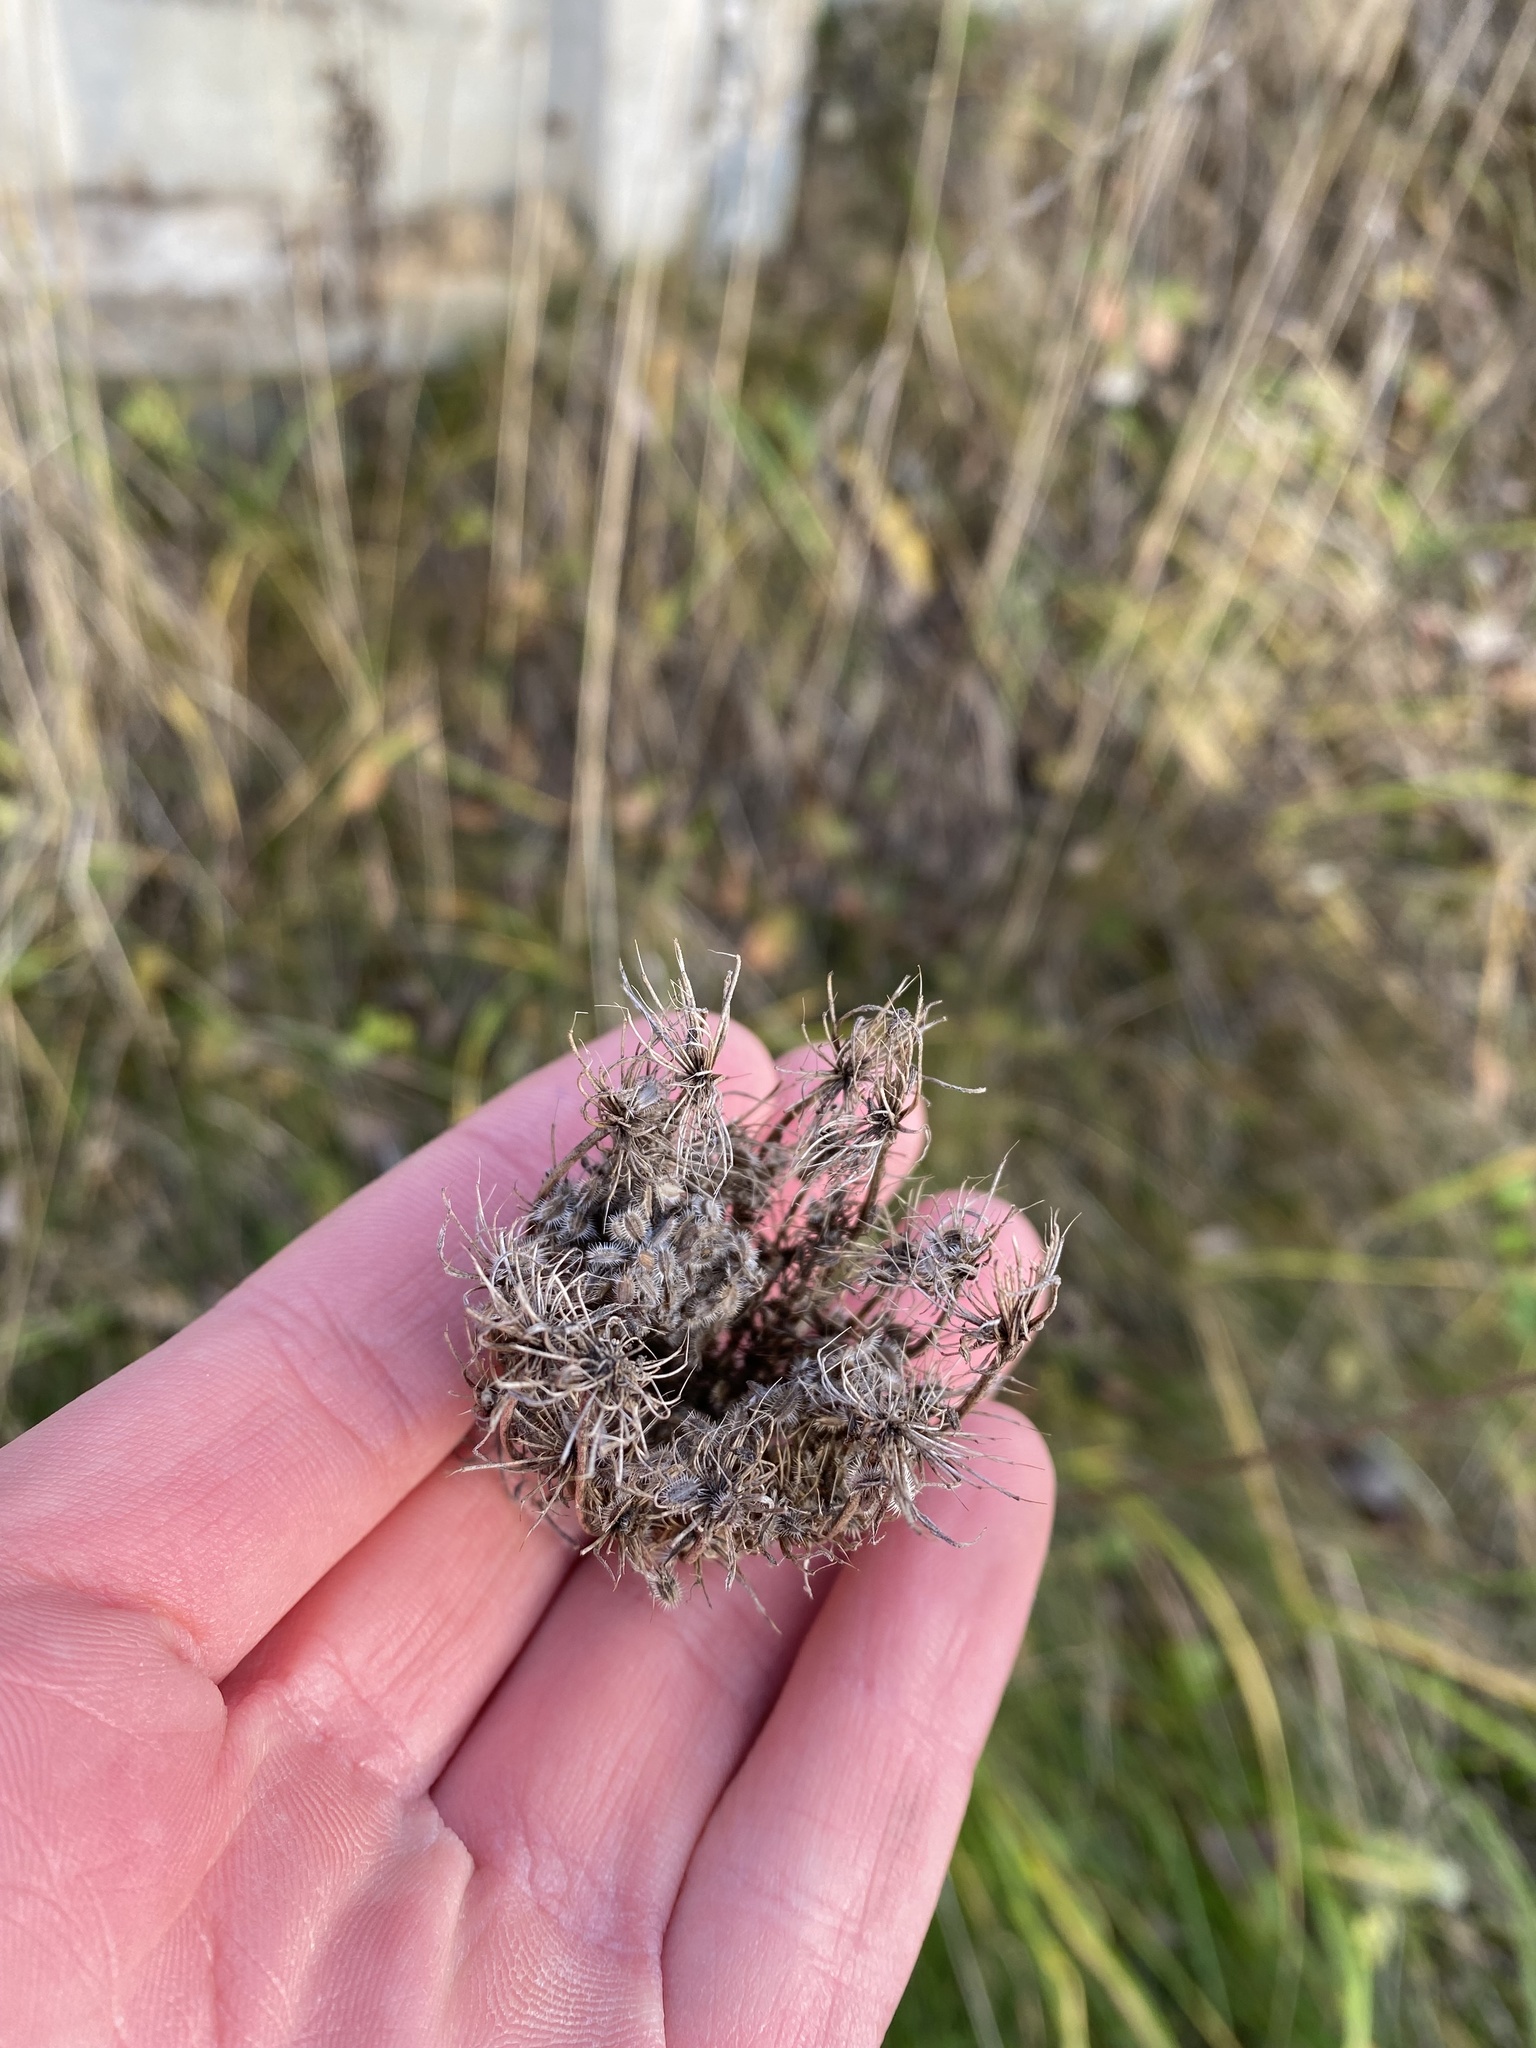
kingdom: Plantae
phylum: Tracheophyta
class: Magnoliopsida
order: Apiales
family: Apiaceae
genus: Daucus
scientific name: Daucus carota
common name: Wild carrot
